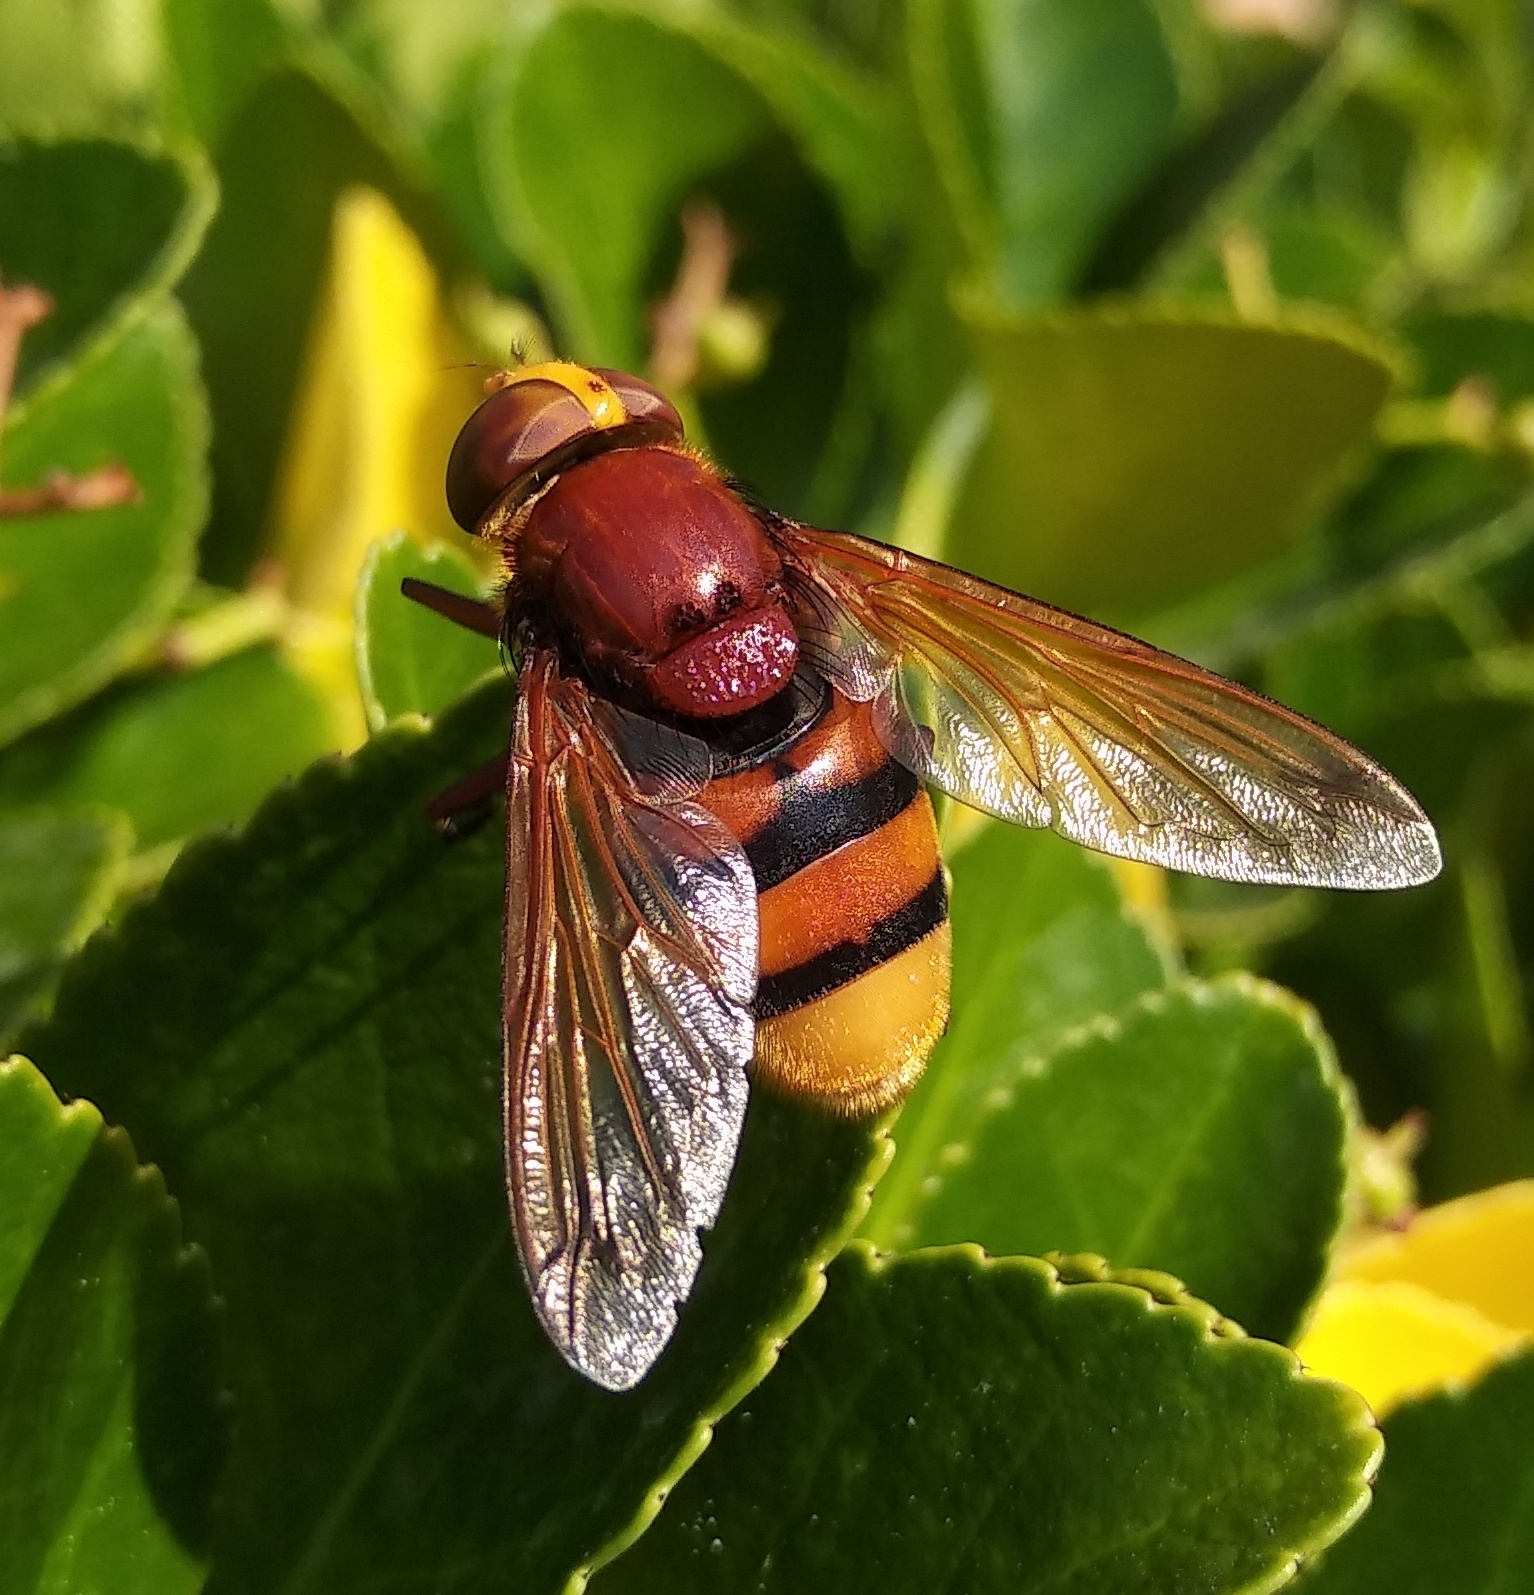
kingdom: Animalia
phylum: Arthropoda
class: Insecta
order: Diptera
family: Syrphidae
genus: Volucella
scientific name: Volucella zonaria
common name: Hornet hoverfly
